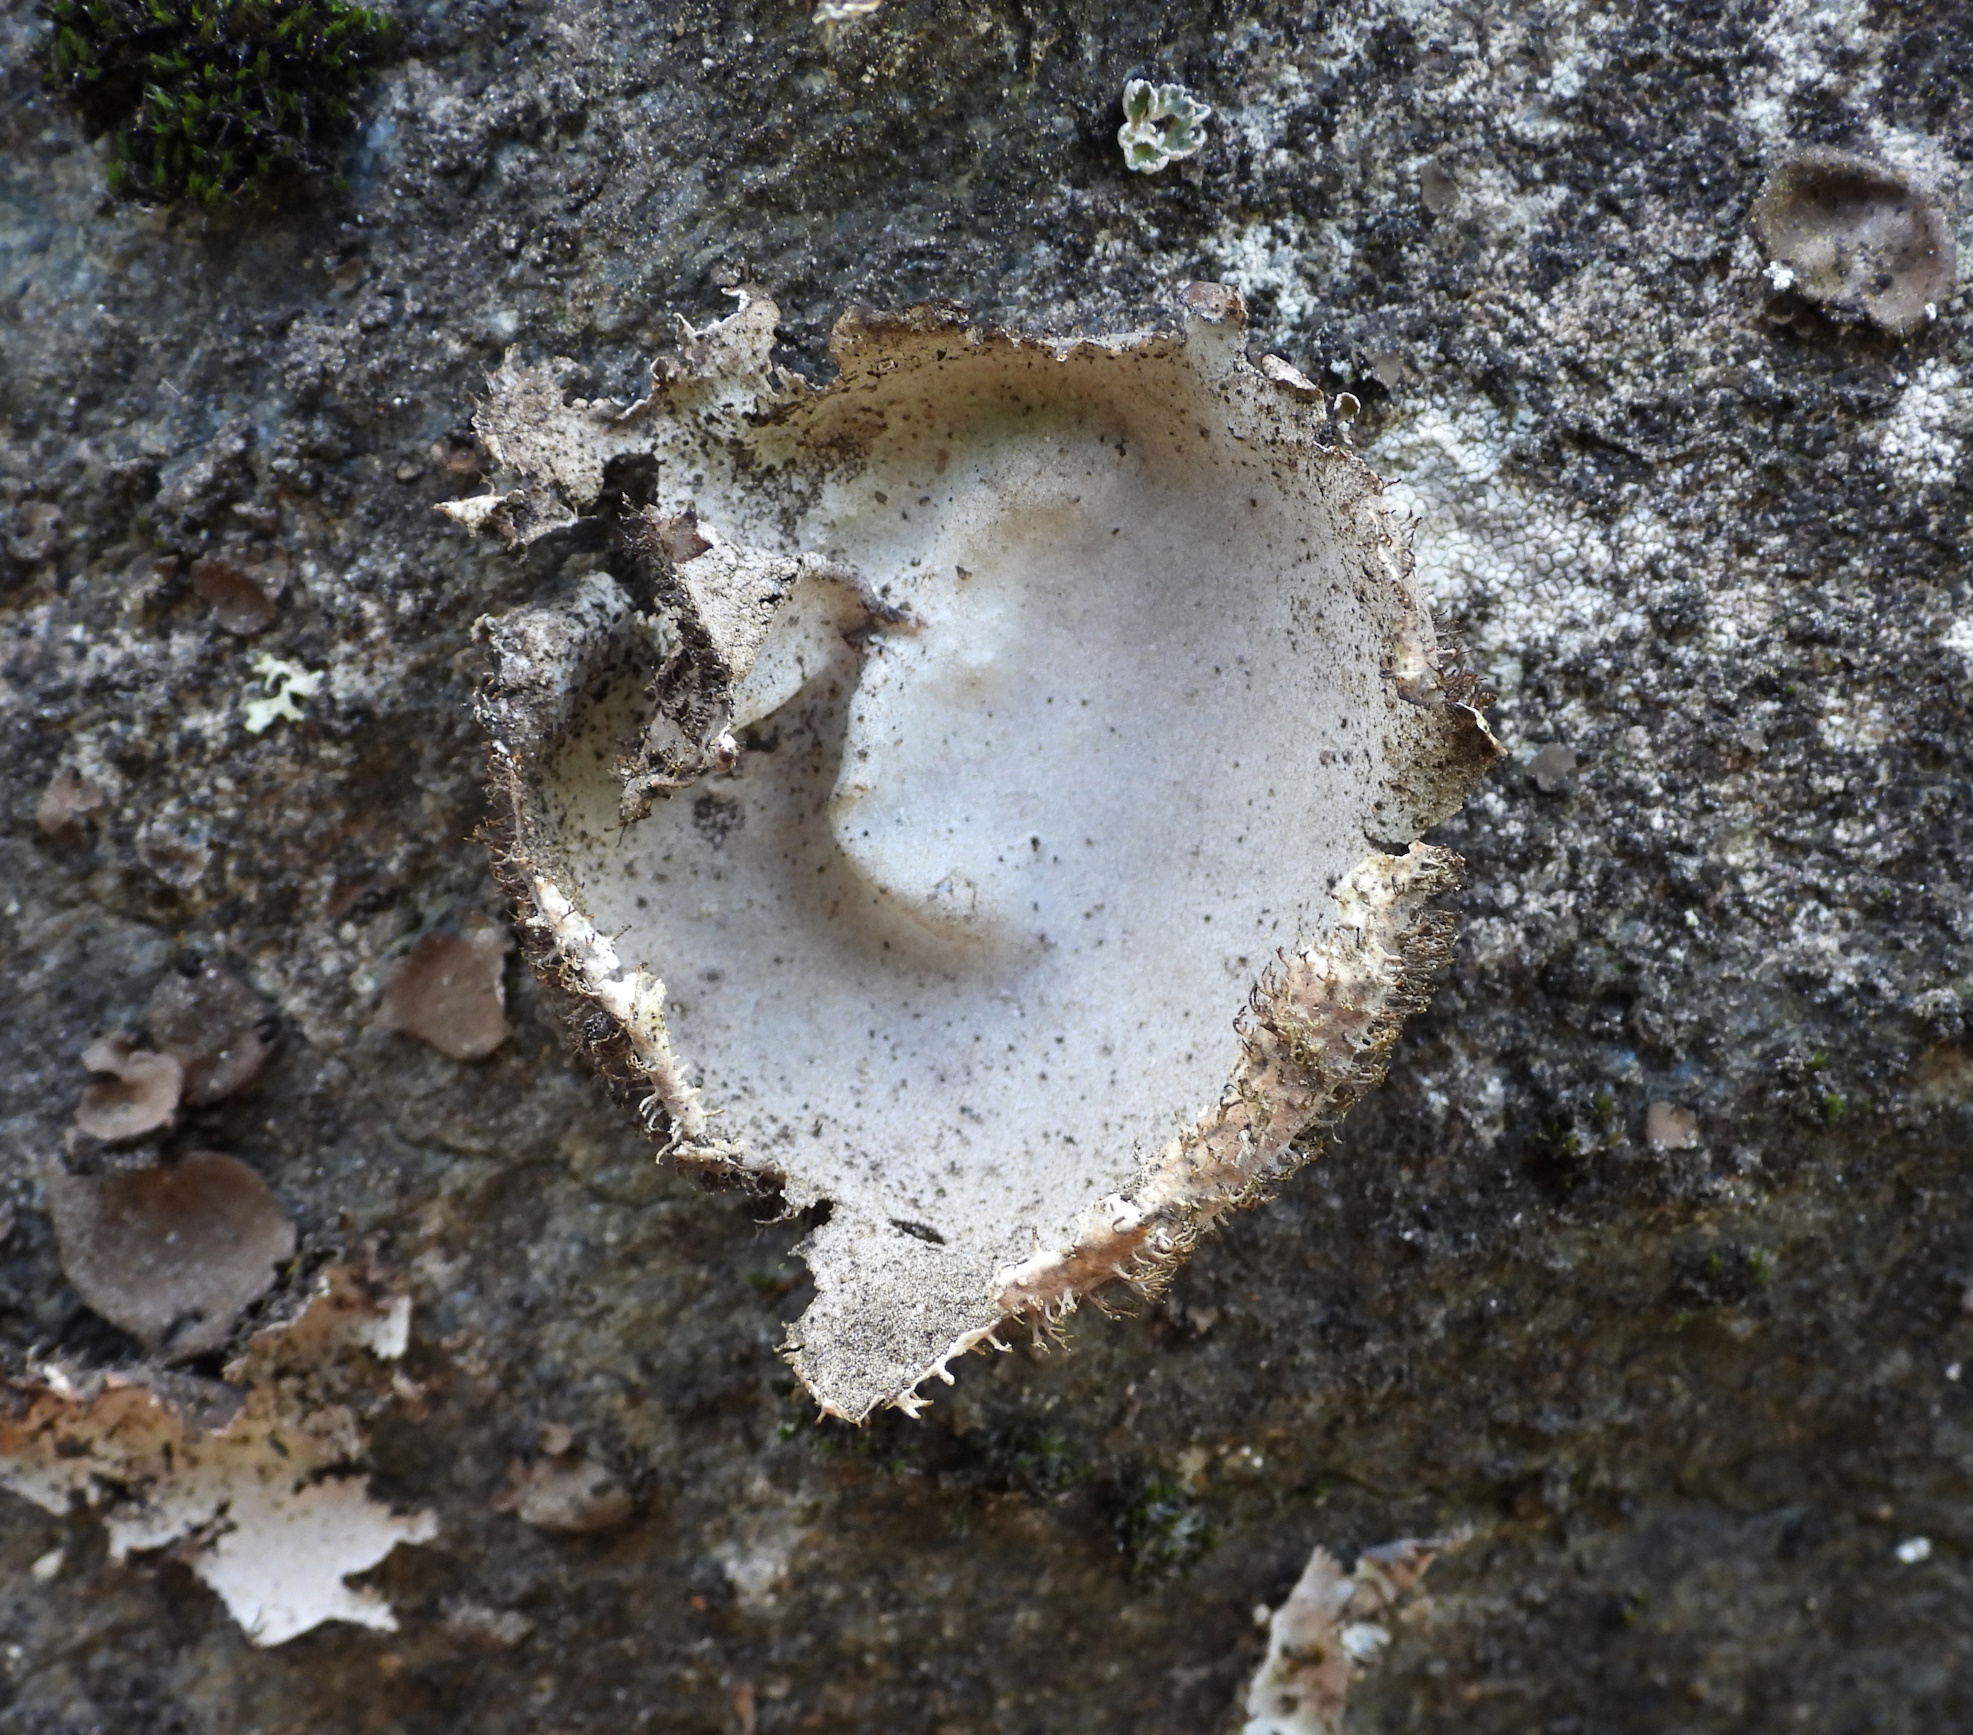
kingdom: Fungi
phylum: Ascomycota
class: Lecanoromycetes
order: Umbilicariales
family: Umbilicariaceae
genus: Umbilicaria
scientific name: Umbilicaria hirsuta
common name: Granulating rocktripe lichen
